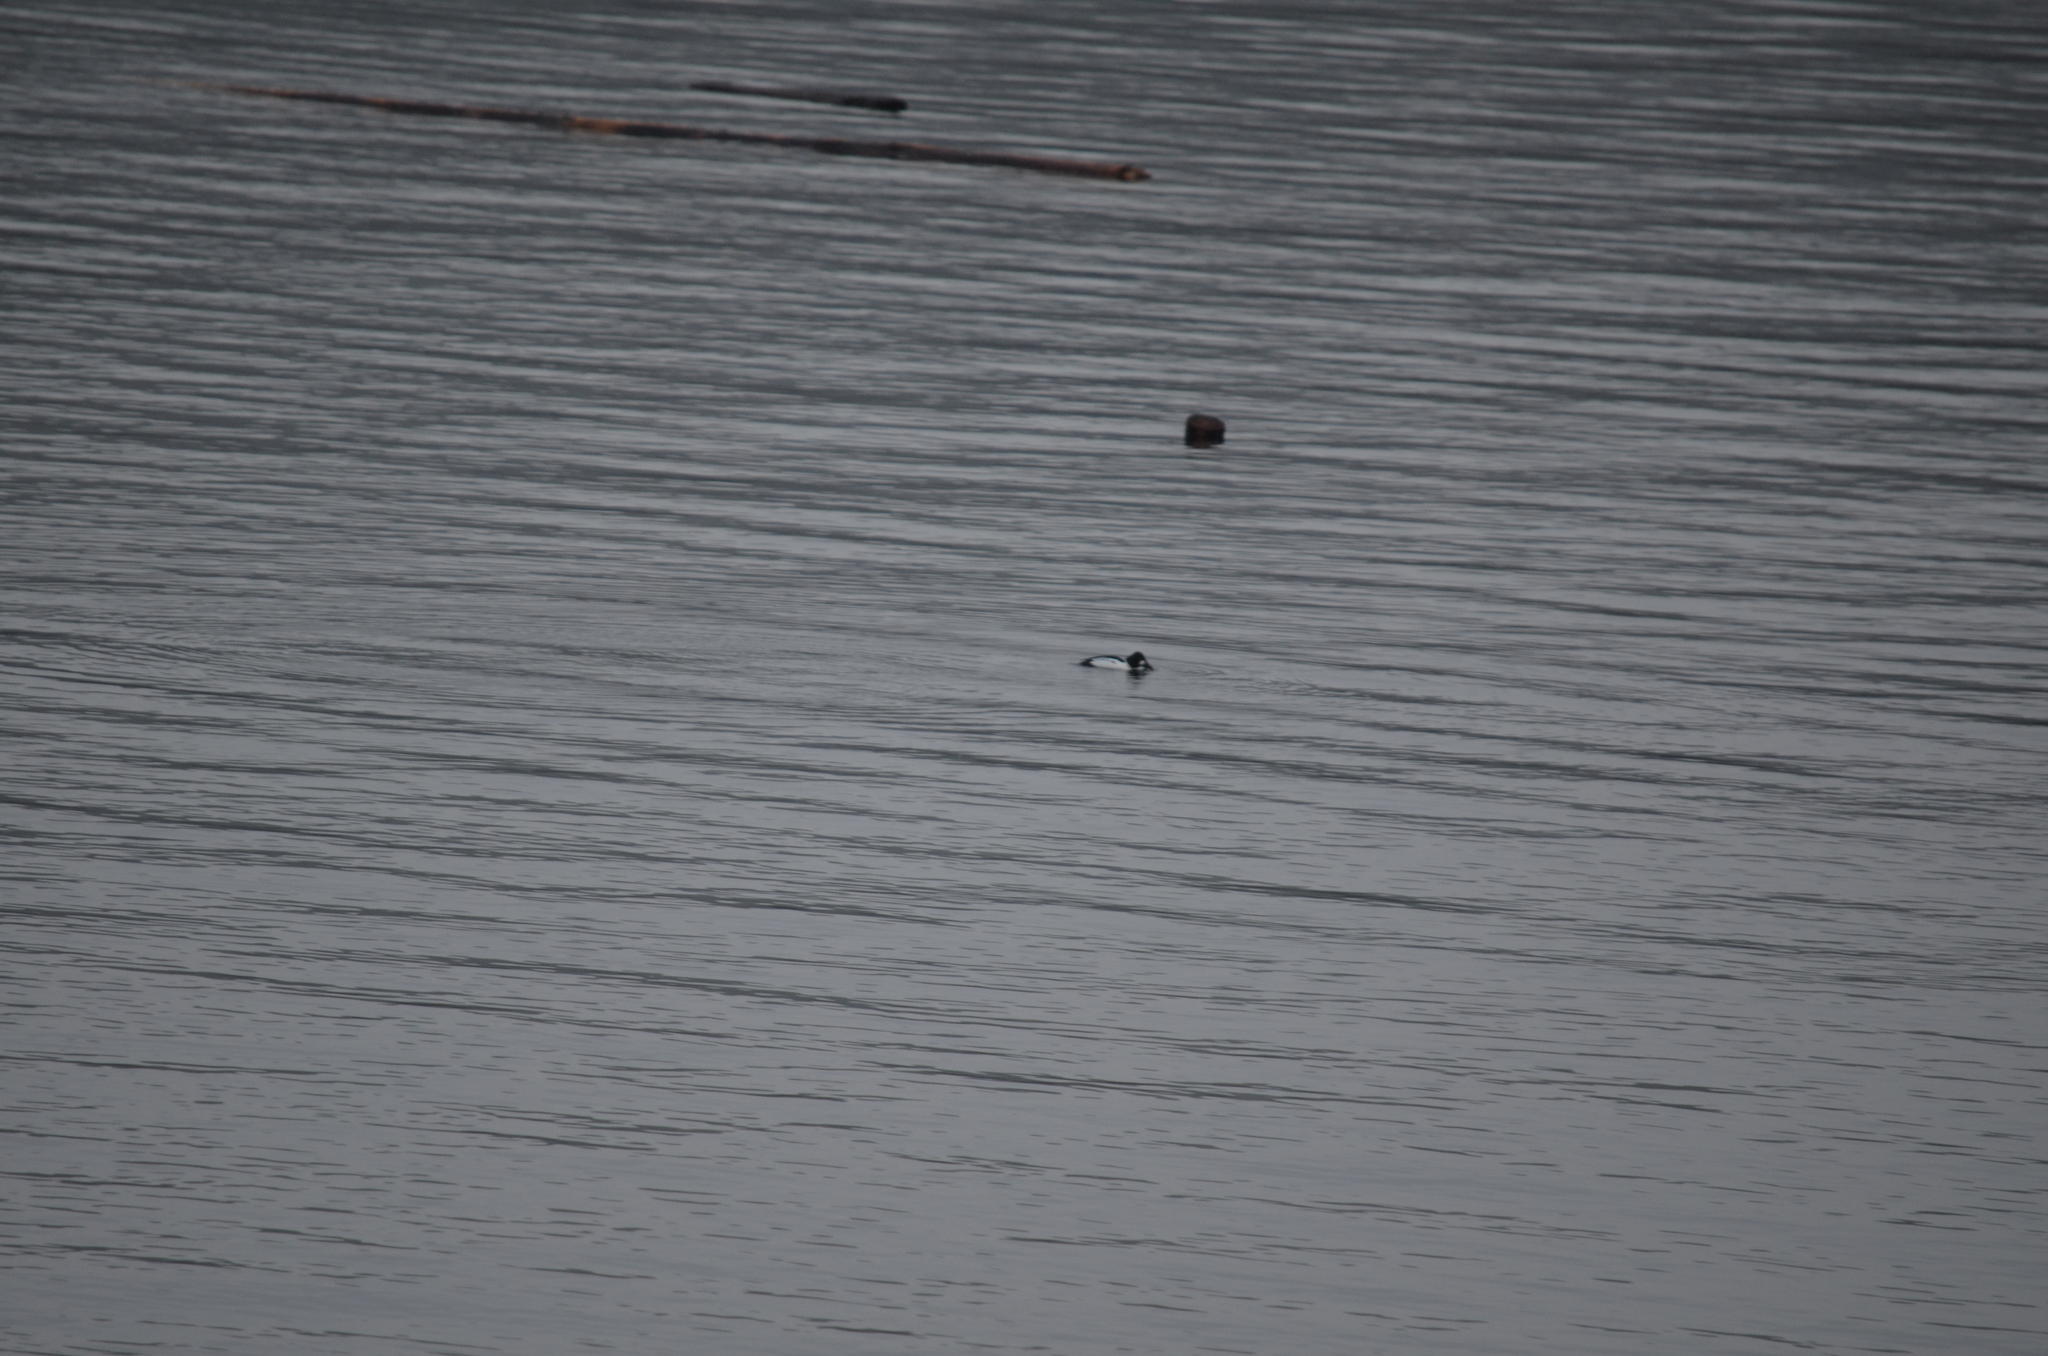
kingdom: Animalia
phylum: Chordata
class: Aves
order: Anseriformes
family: Anatidae
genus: Bucephala
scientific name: Bucephala clangula
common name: Common goldeneye
